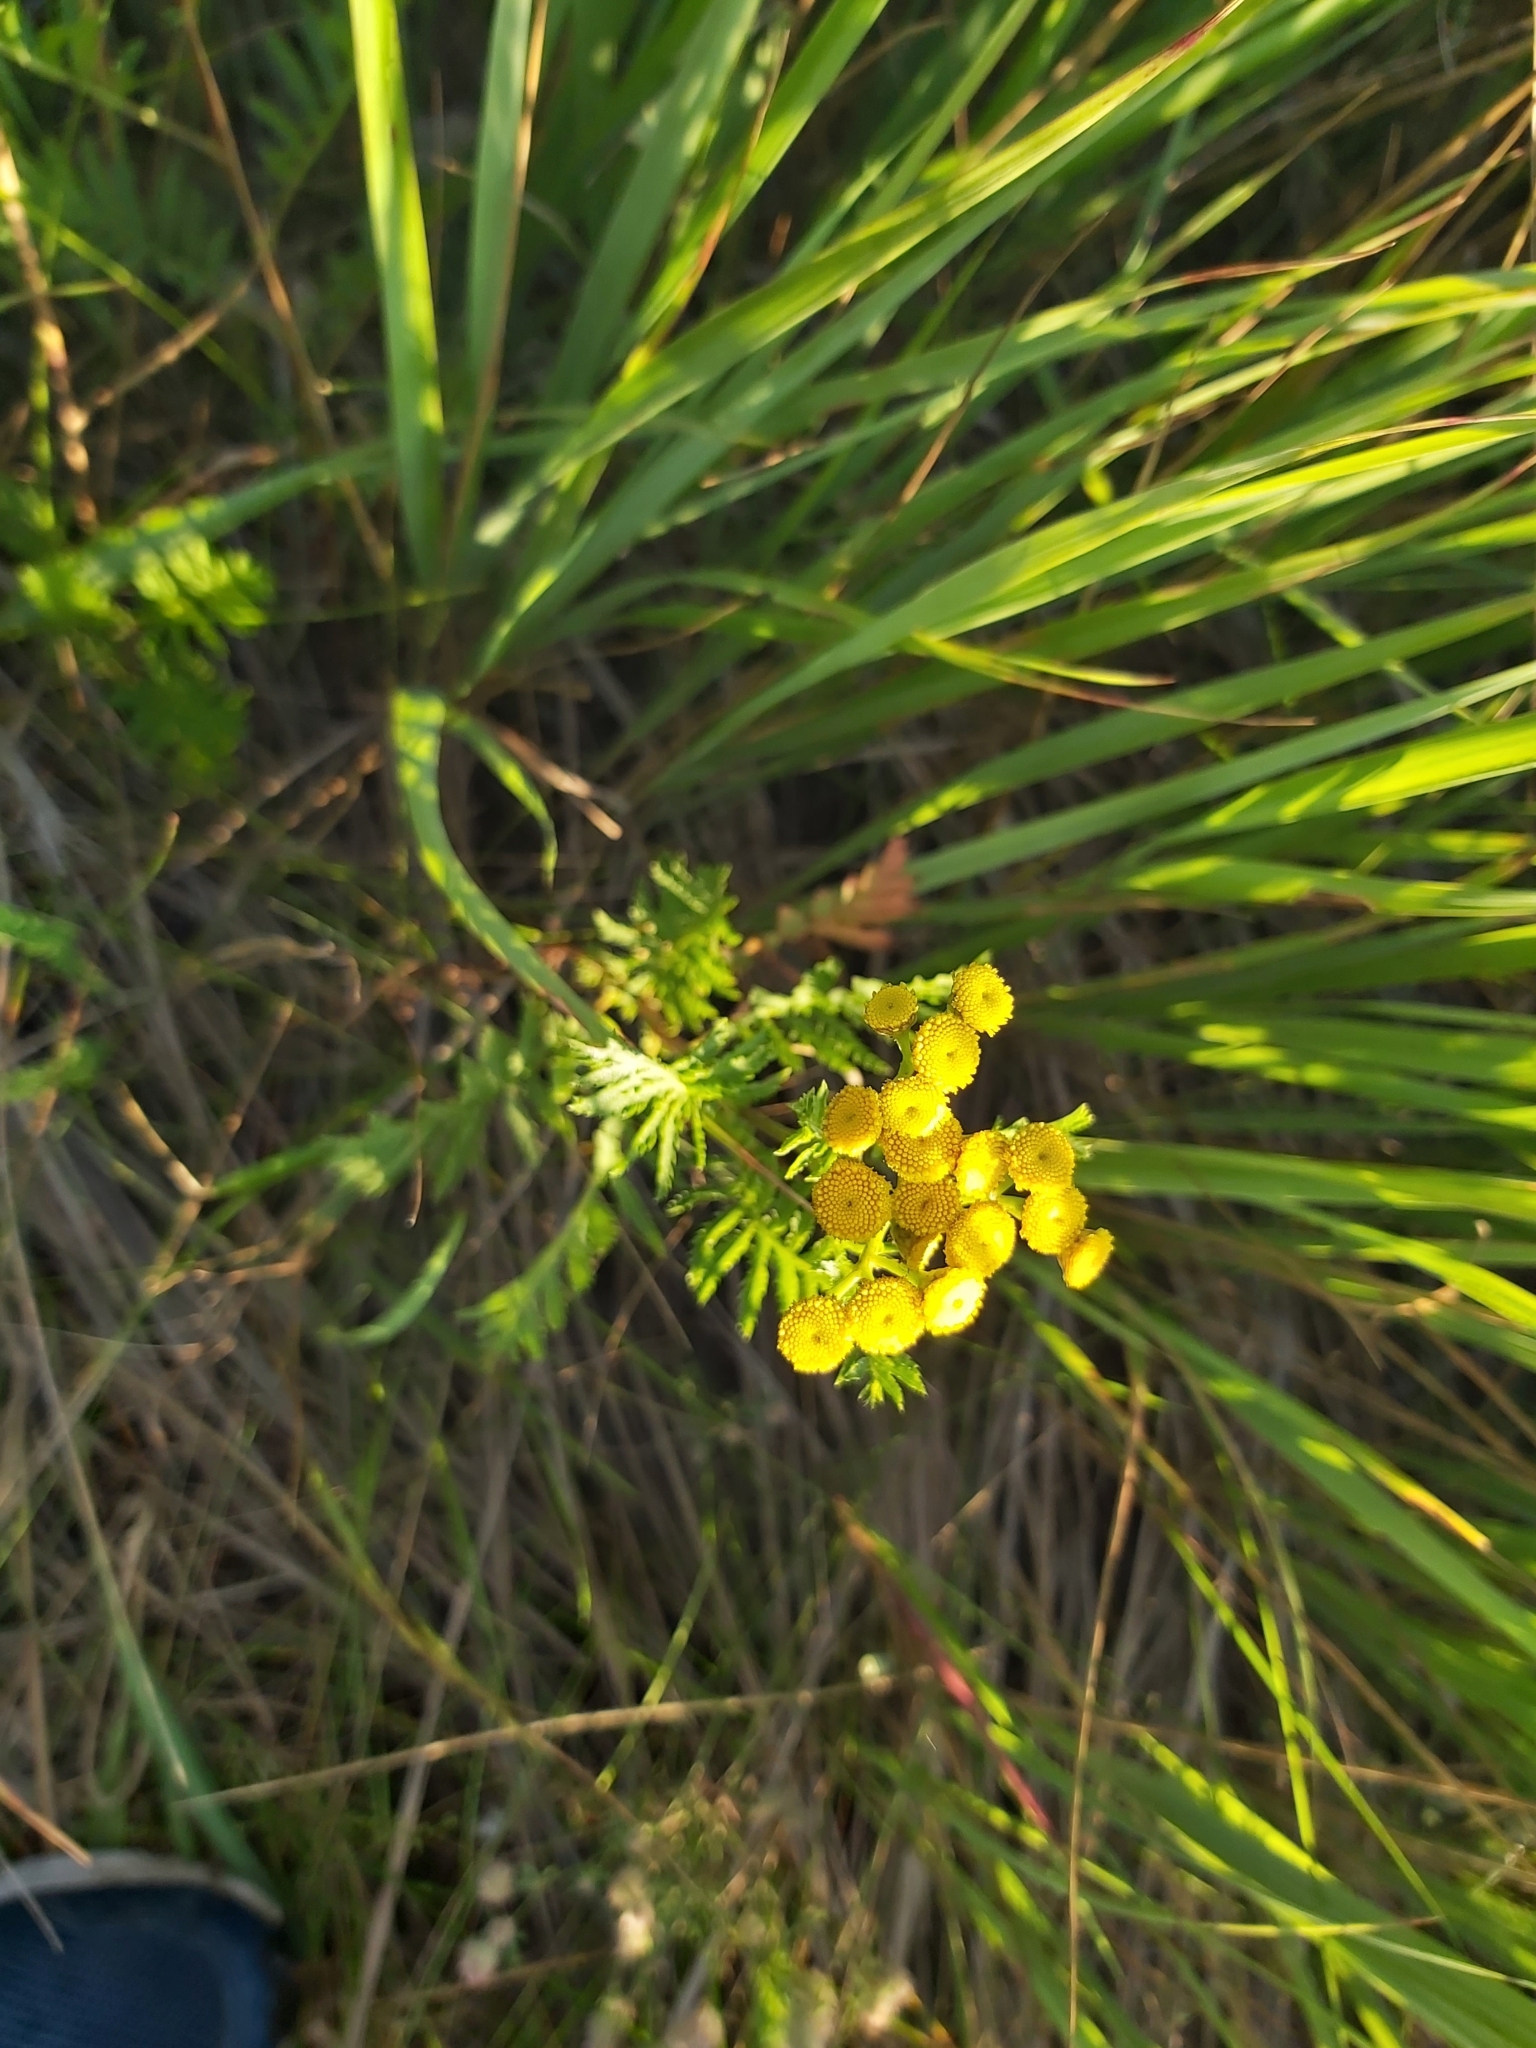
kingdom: Plantae
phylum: Tracheophyta
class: Magnoliopsida
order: Asterales
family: Asteraceae
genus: Tanacetum
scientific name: Tanacetum vulgare
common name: Common tansy
